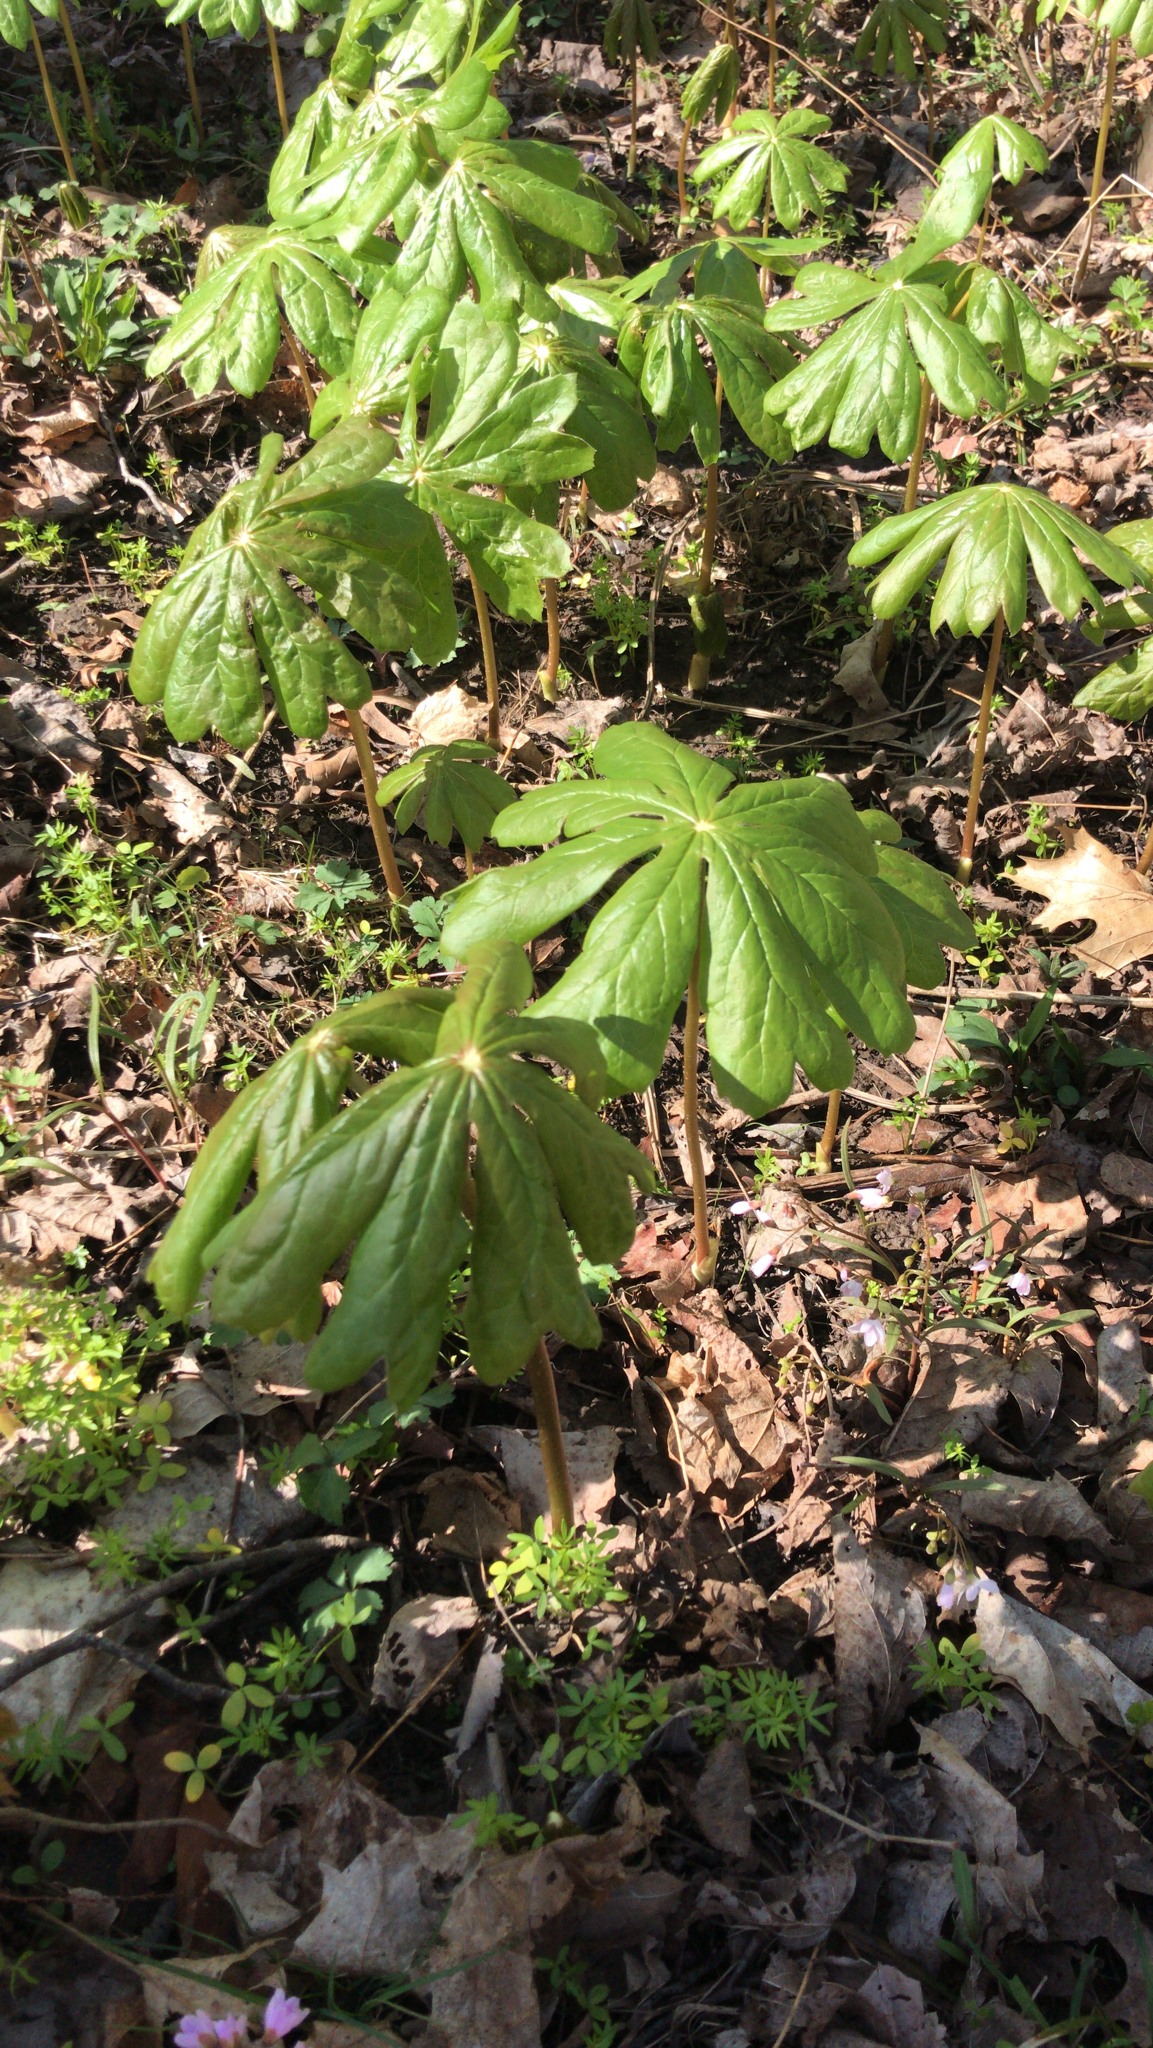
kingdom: Plantae
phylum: Tracheophyta
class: Magnoliopsida
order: Ranunculales
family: Berberidaceae
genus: Podophyllum
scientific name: Podophyllum peltatum
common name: Wild mandrake
